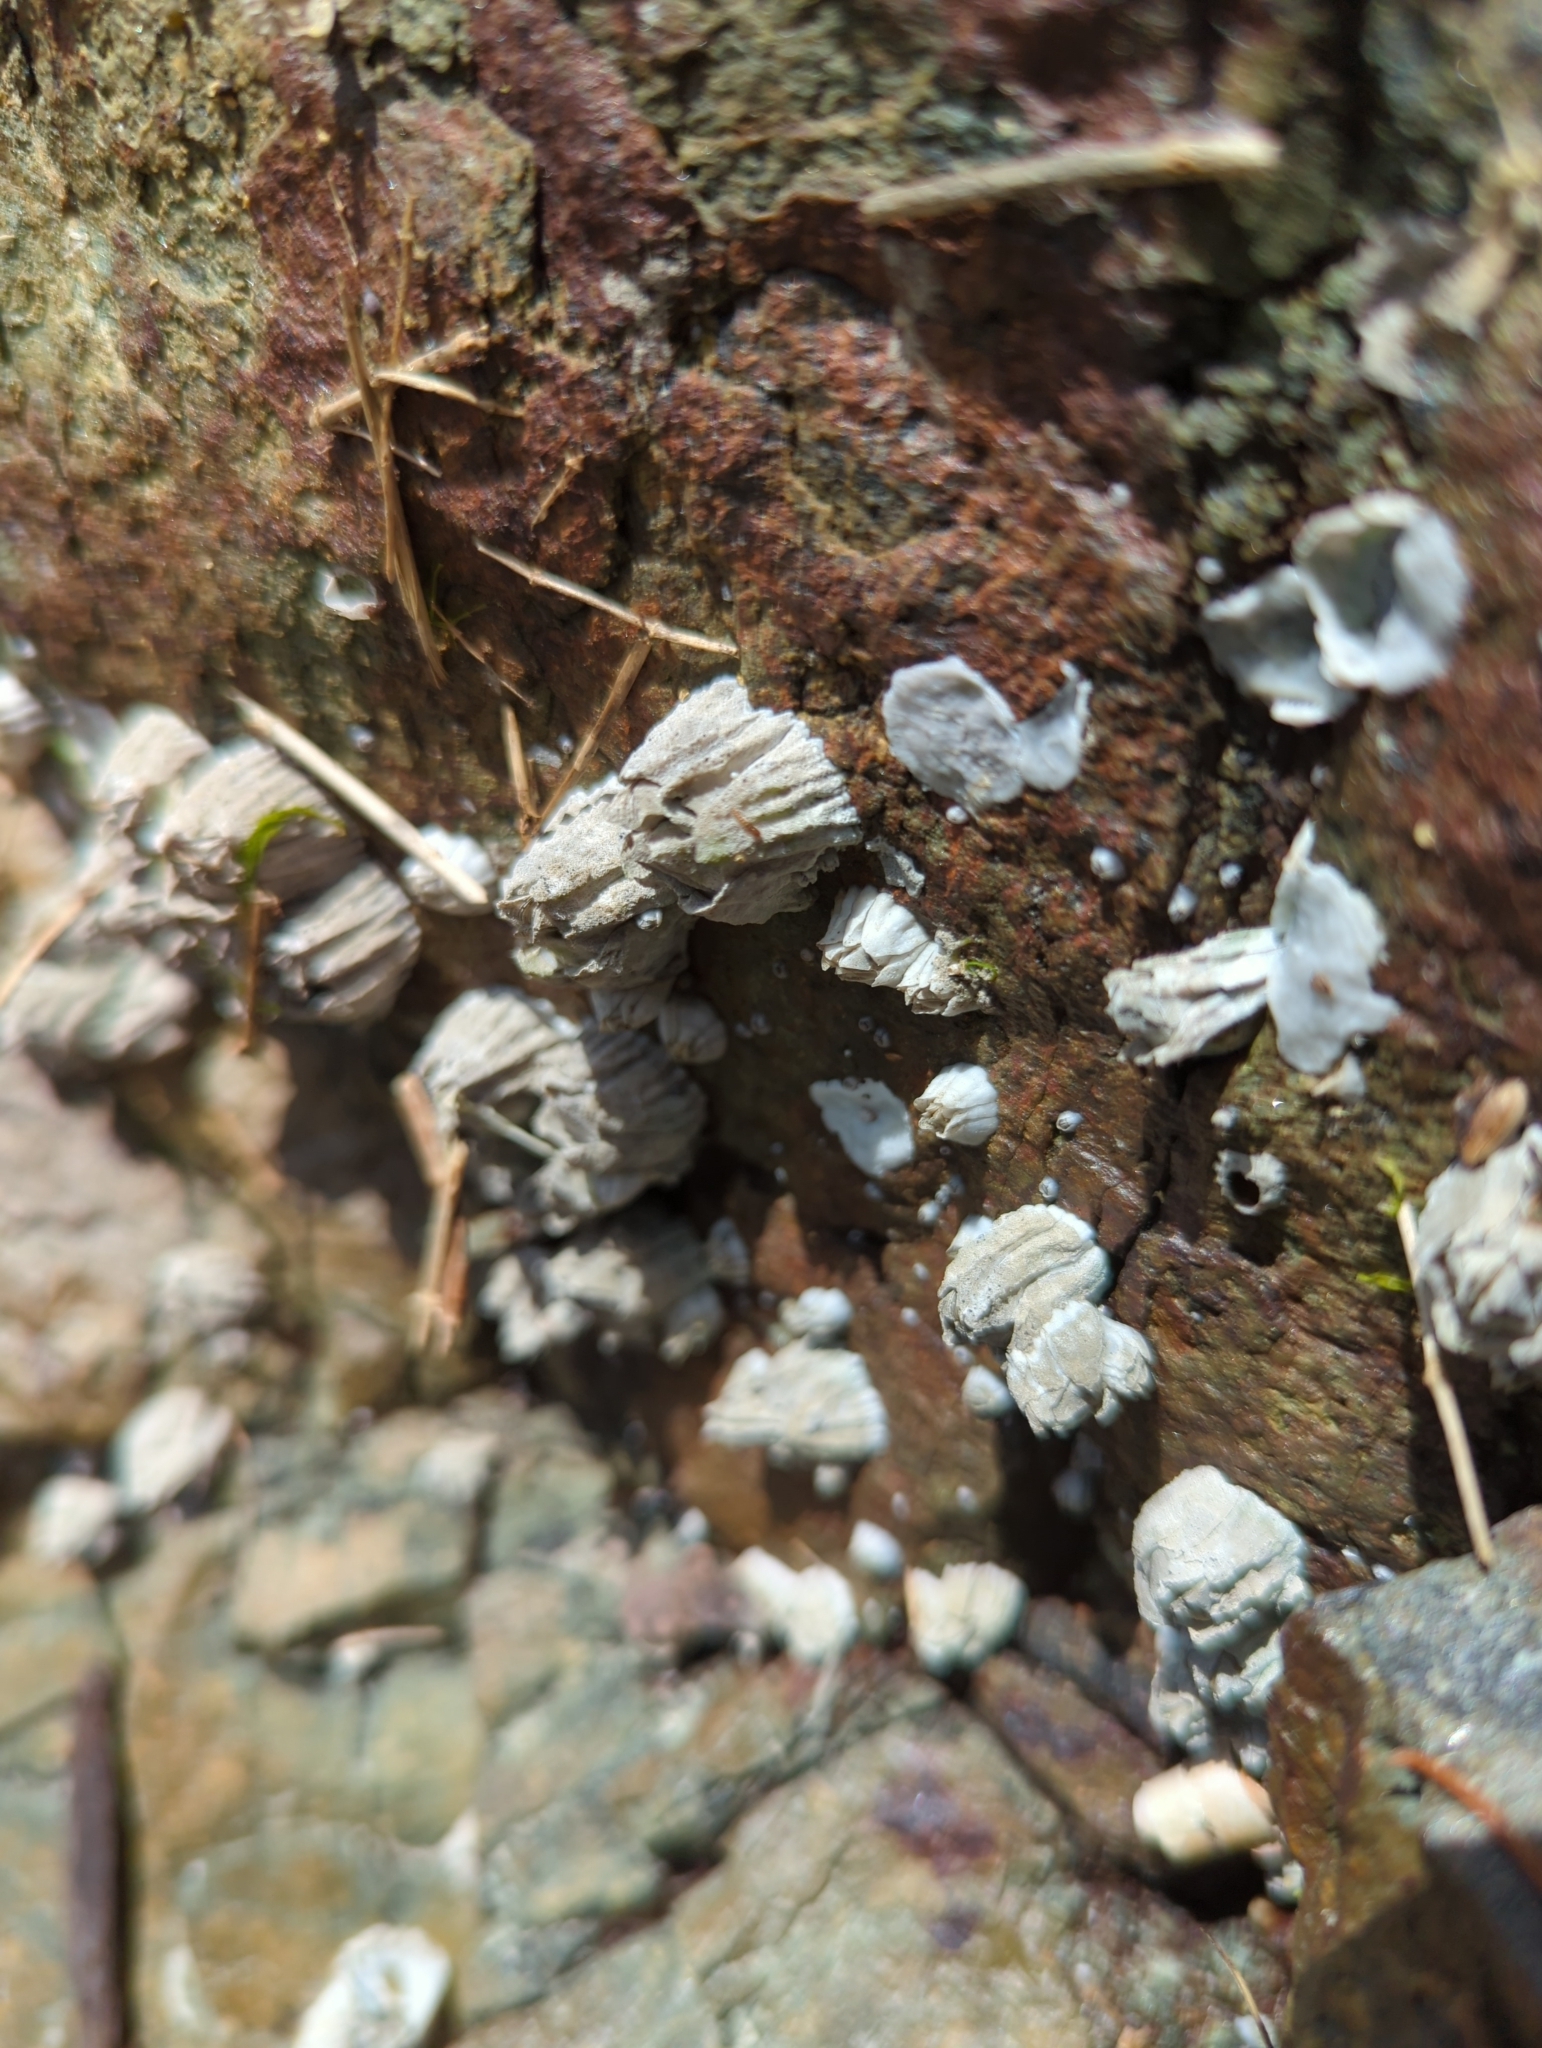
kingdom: Animalia
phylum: Arthropoda
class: Maxillopoda
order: Sessilia
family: Balanidae
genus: Balanus
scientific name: Balanus glandula
